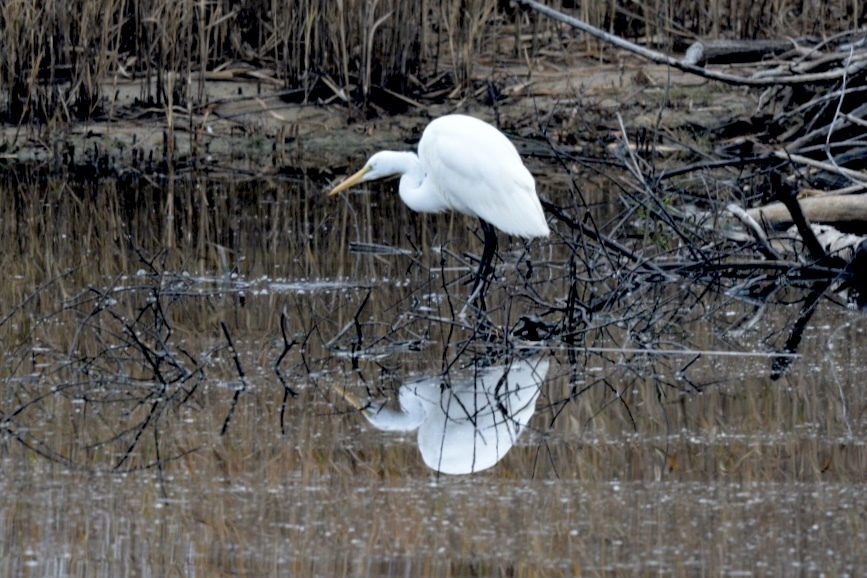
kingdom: Animalia
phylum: Chordata
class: Aves
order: Pelecaniformes
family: Ardeidae
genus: Ardea
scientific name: Ardea alba
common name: Great egret
